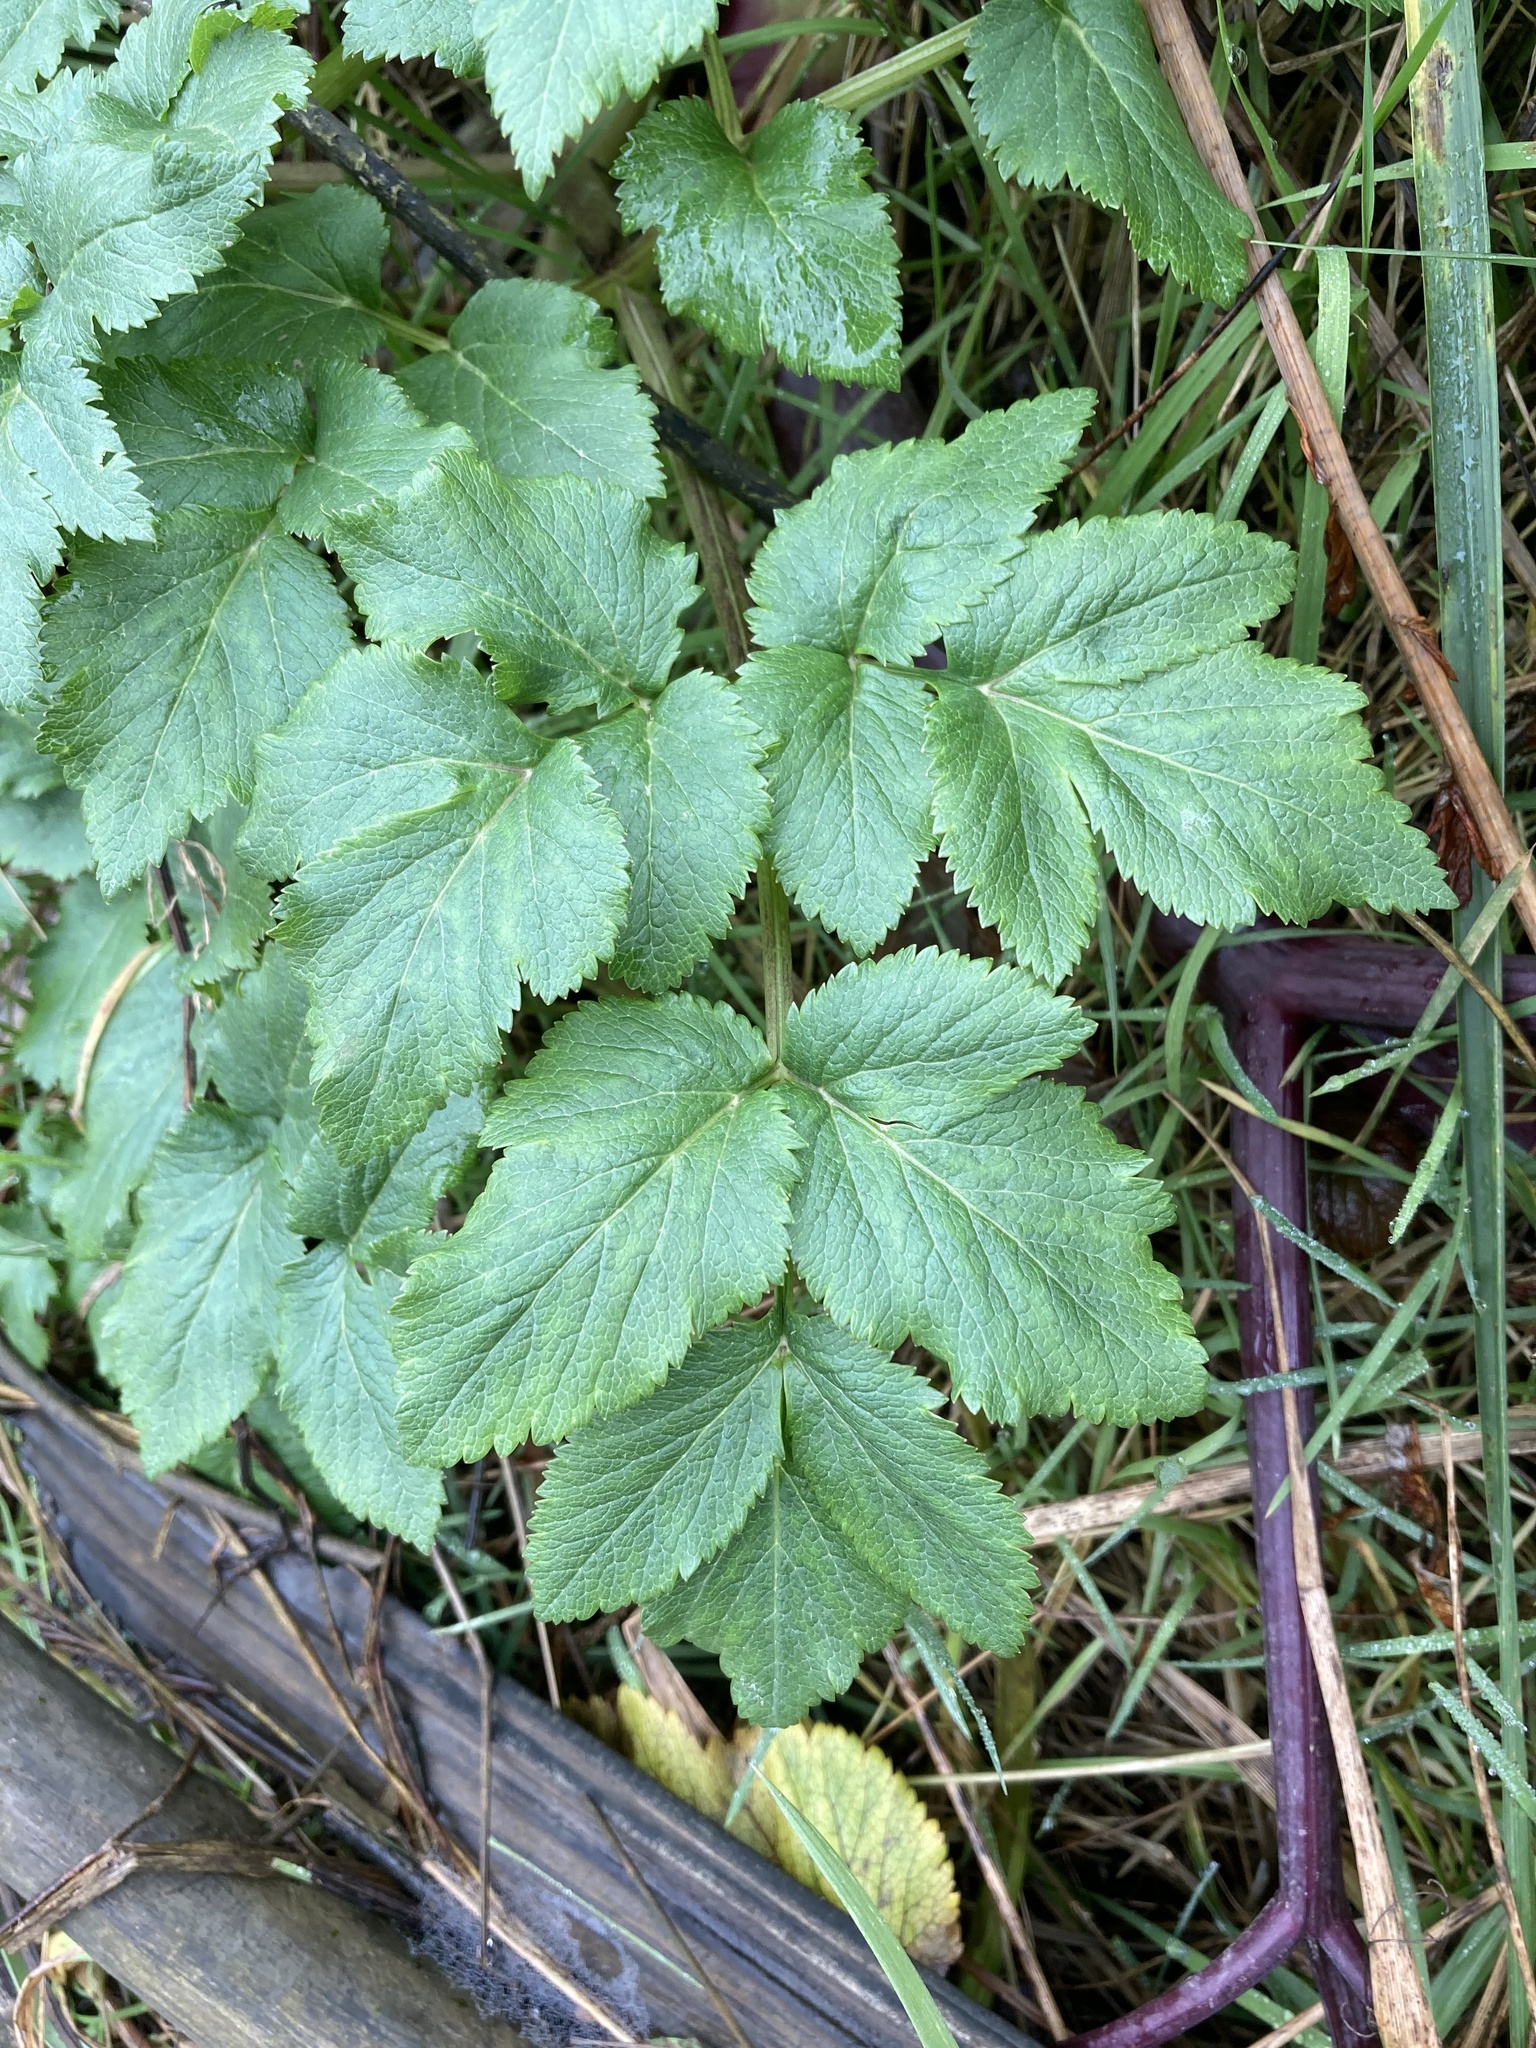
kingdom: Plantae
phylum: Tracheophyta
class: Magnoliopsida
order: Apiales
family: Apiaceae
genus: Angelica
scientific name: Angelica lucida
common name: Seabeach angelica
